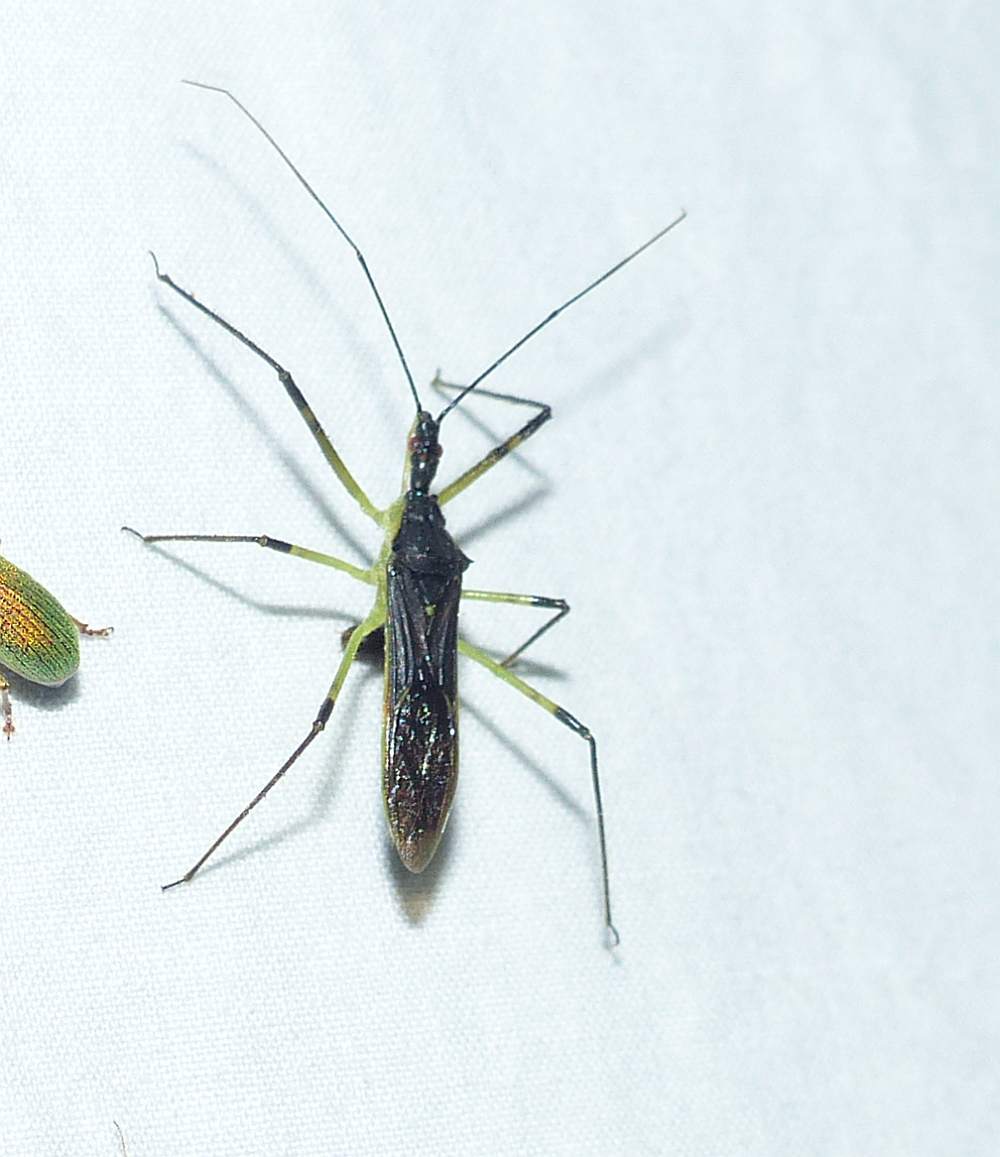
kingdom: Animalia
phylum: Arthropoda
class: Insecta
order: Hemiptera
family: Reduviidae
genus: Zelus
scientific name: Zelus luridus
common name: Pale green assassin bug
